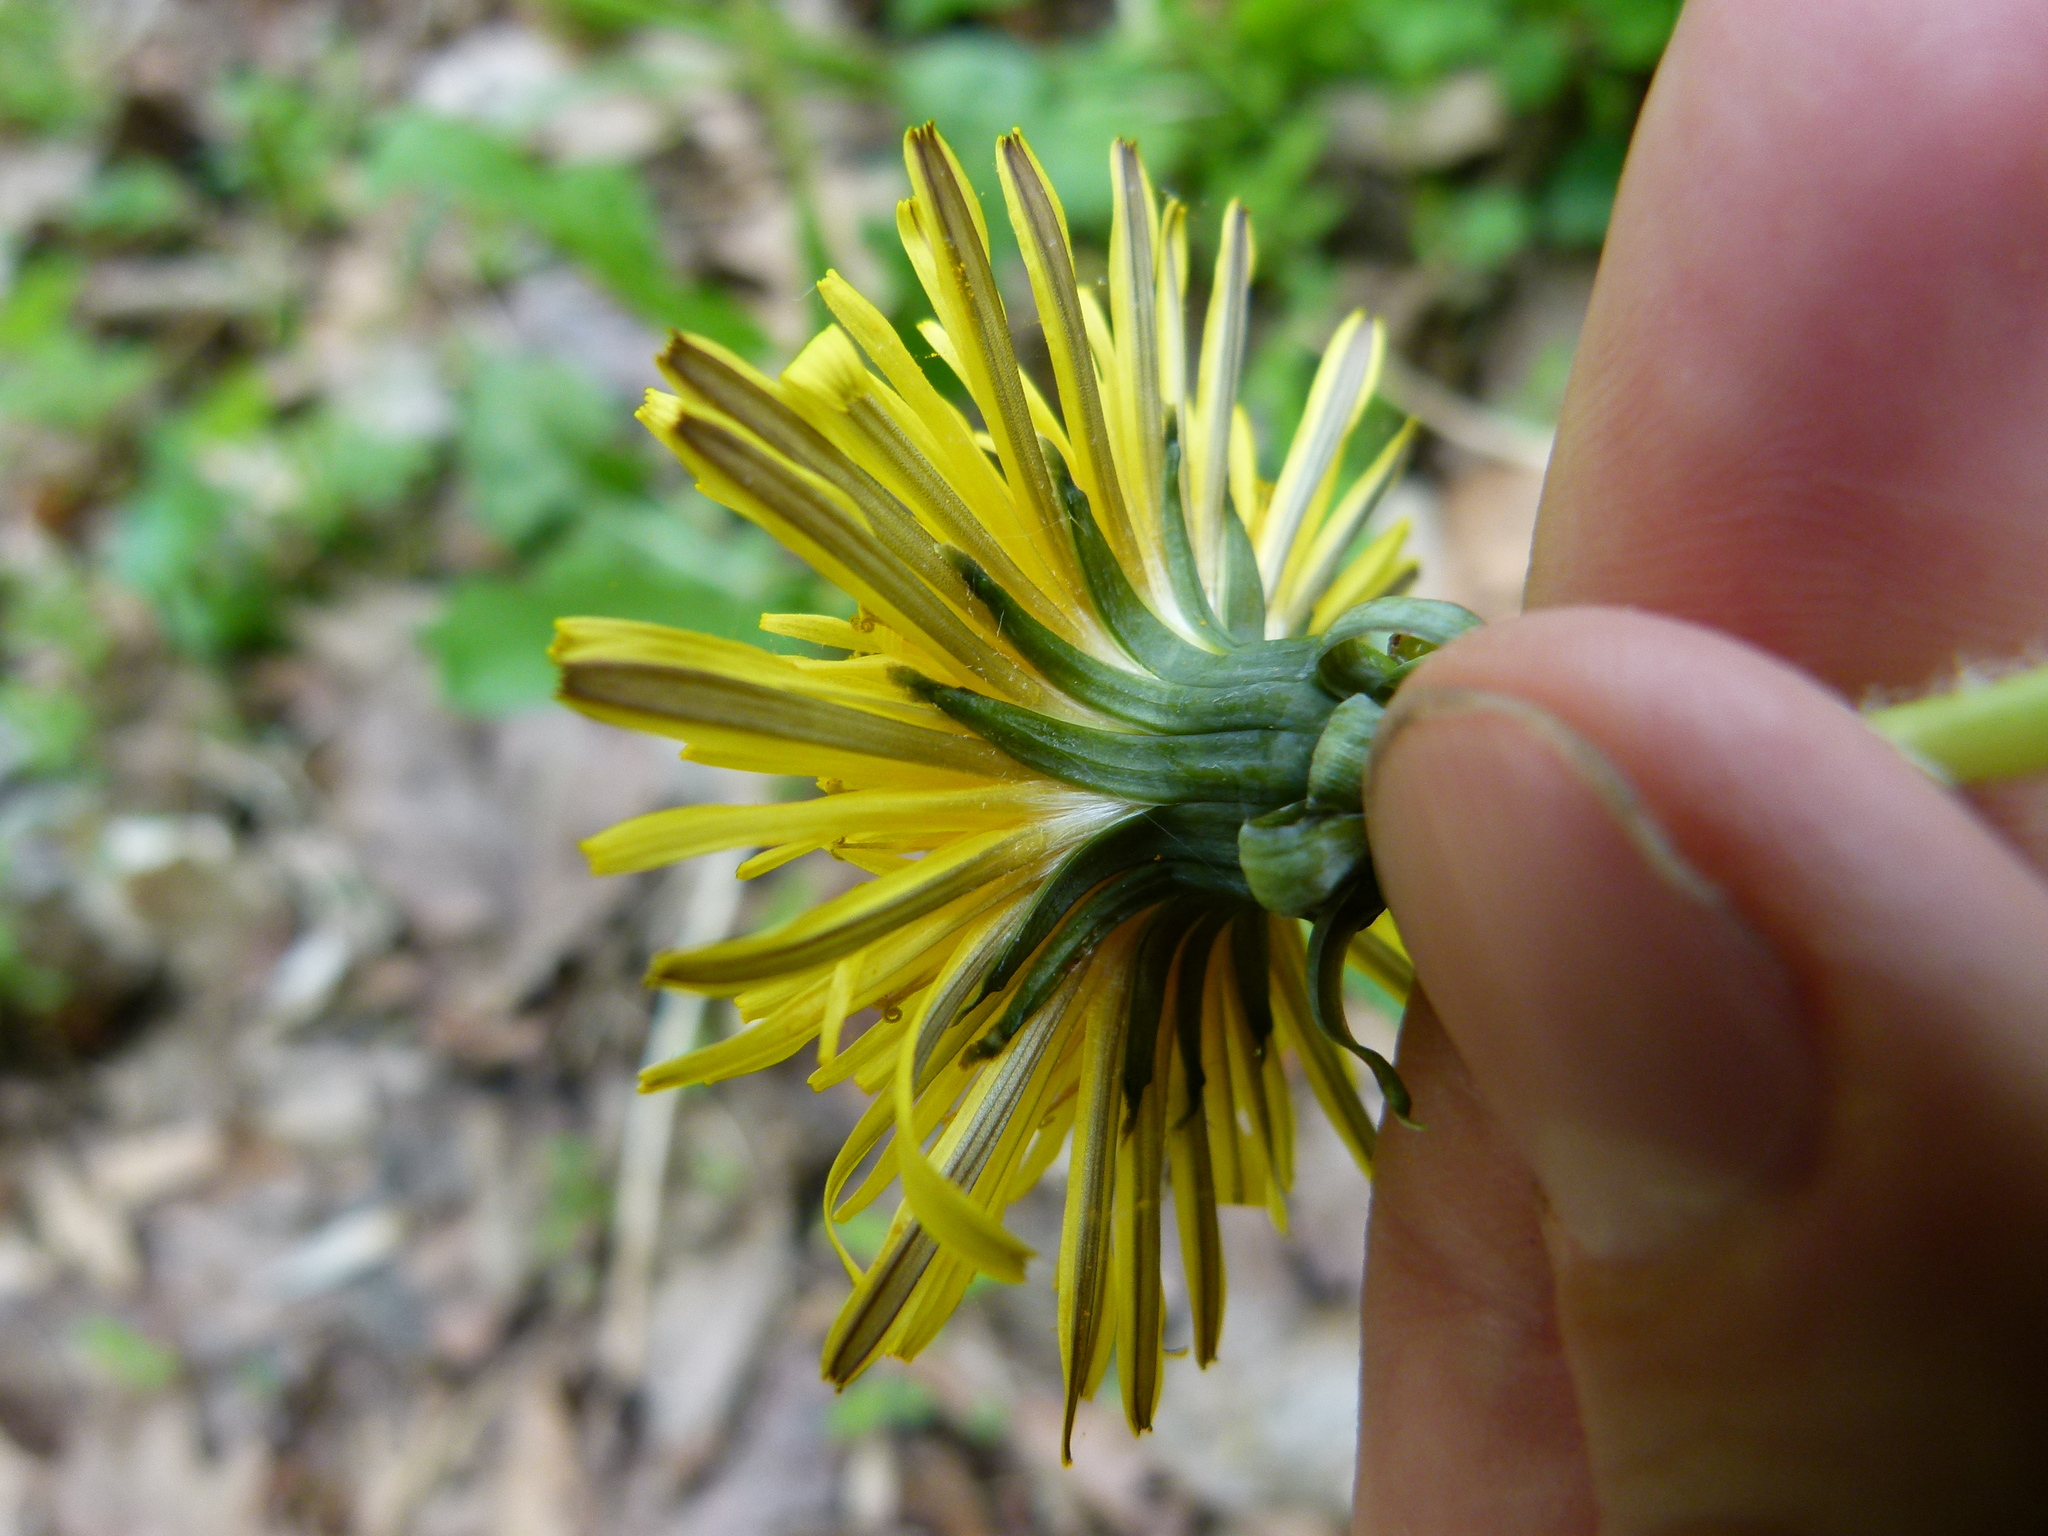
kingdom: Plantae
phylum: Tracheophyta
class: Magnoliopsida
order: Asterales
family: Asteraceae
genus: Taraxacum
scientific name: Taraxacum officinale
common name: Common dandelion
